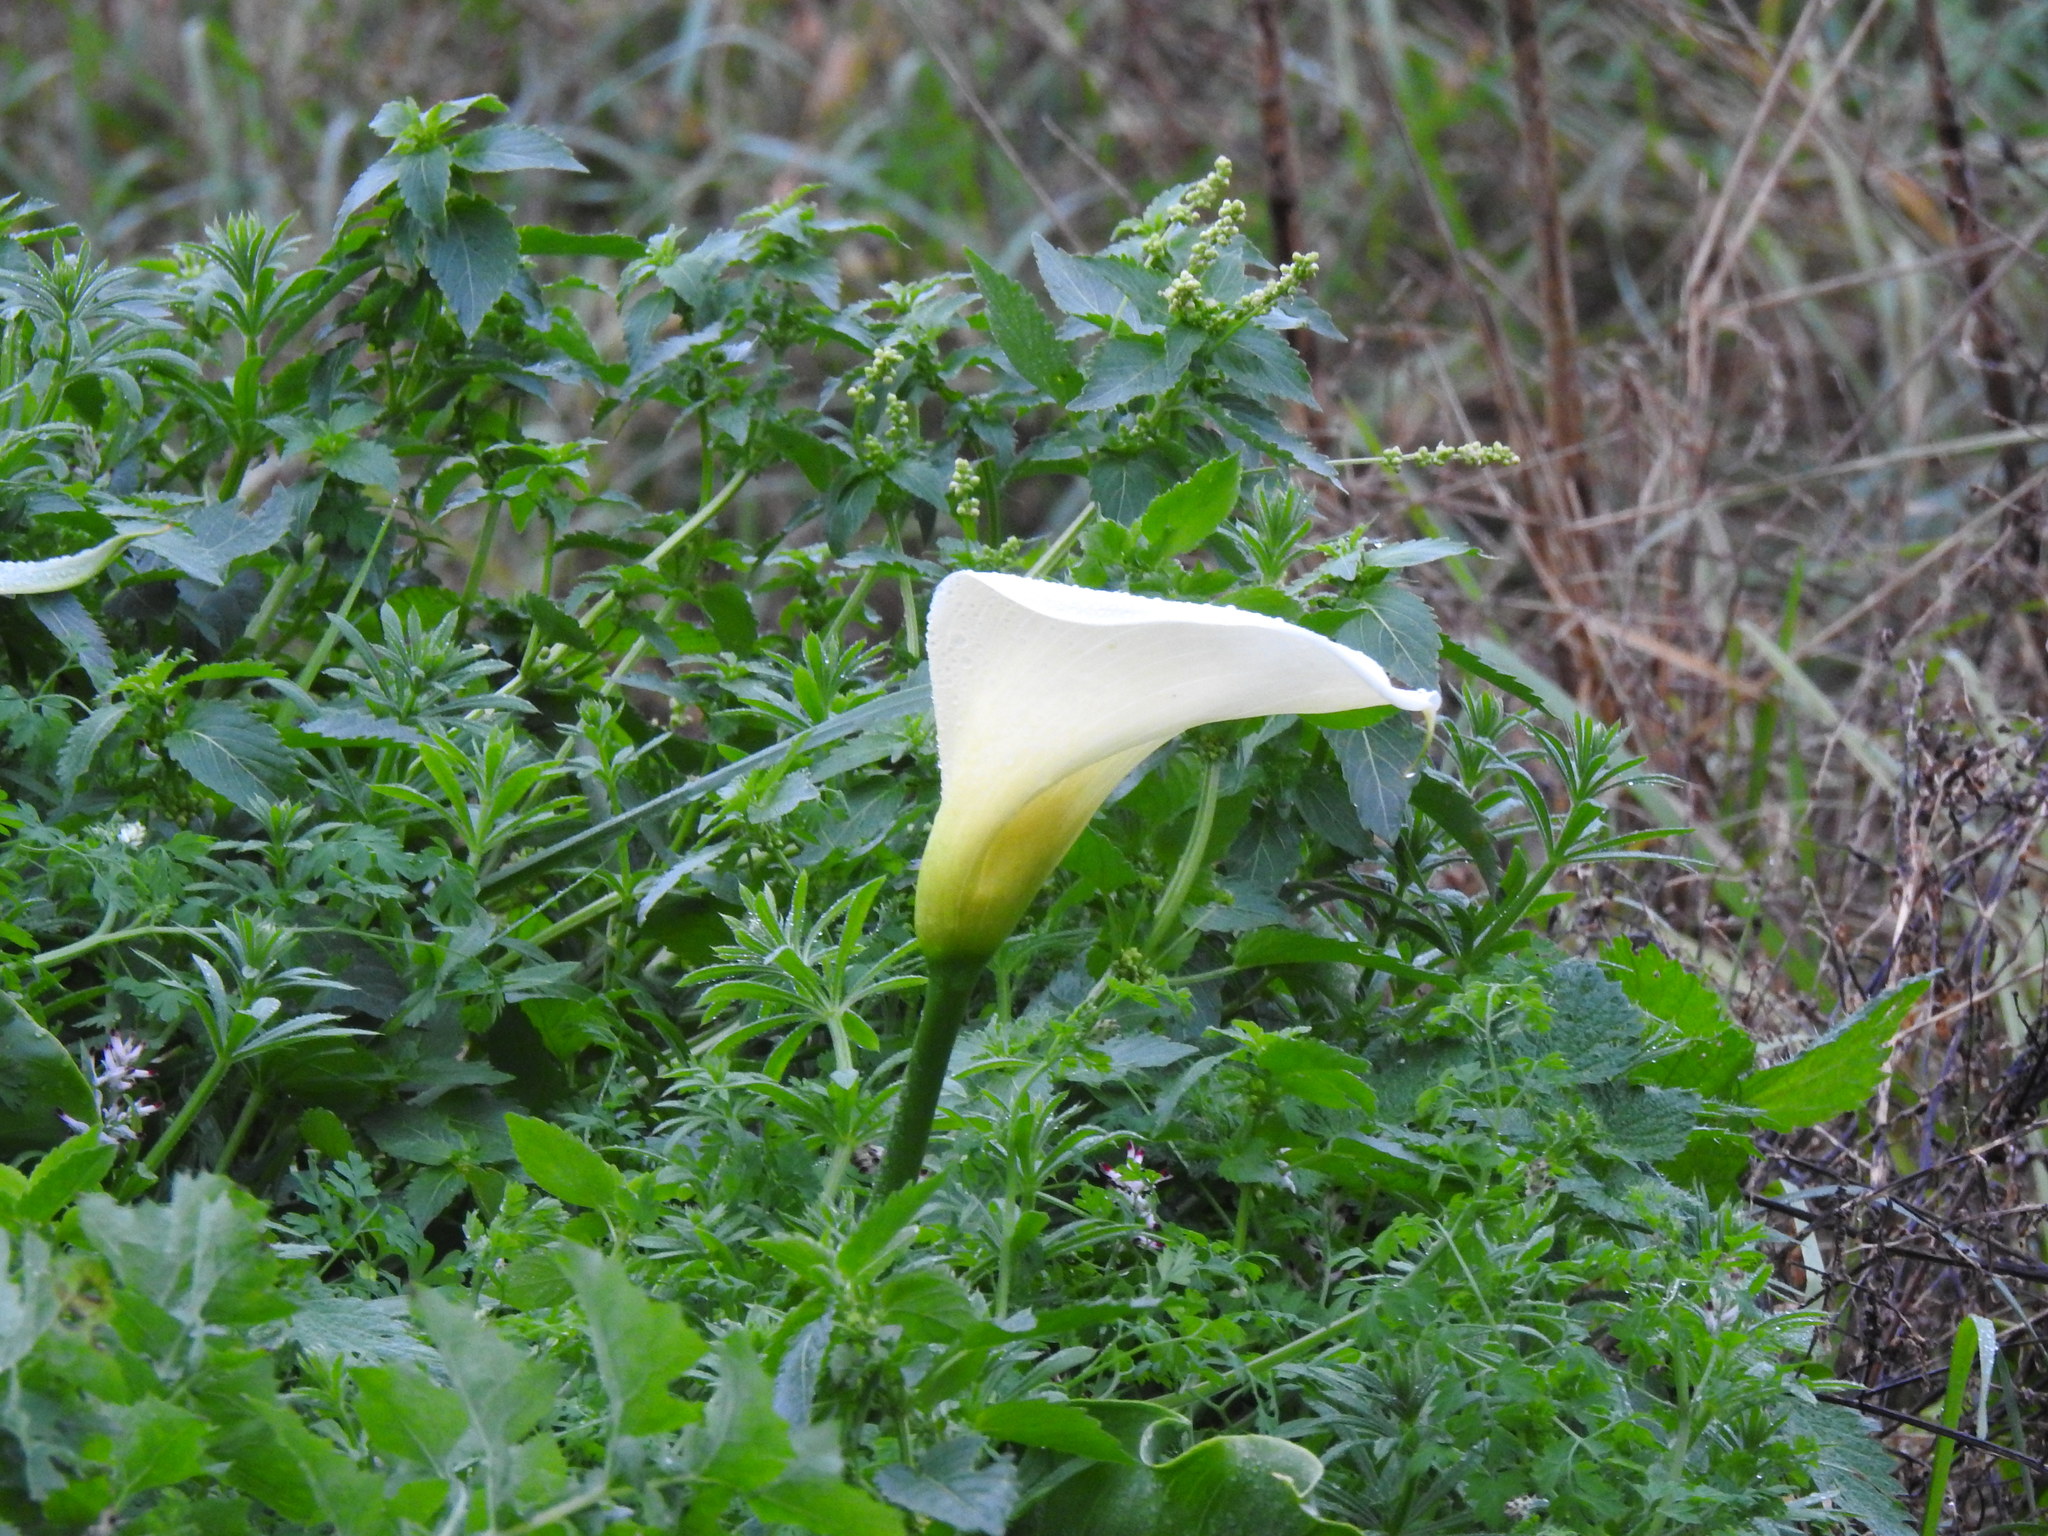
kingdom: Plantae
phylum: Tracheophyta
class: Magnoliopsida
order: Malpighiales
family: Euphorbiaceae
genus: Mercurialis
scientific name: Mercurialis annua
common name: Annual mercury
